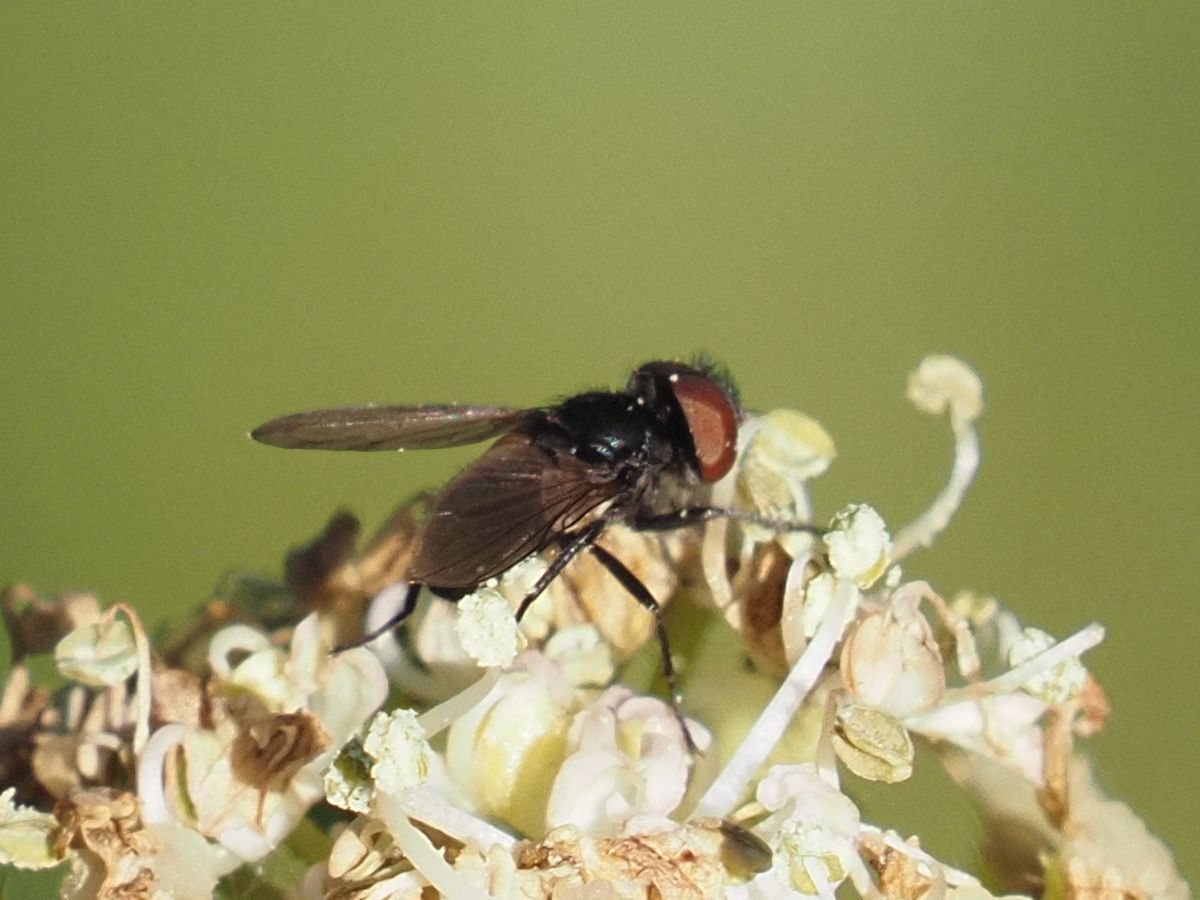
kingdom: Animalia
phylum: Arthropoda
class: Insecta
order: Diptera
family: Tachinidae
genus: Phasia
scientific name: Phasia barbifrons
